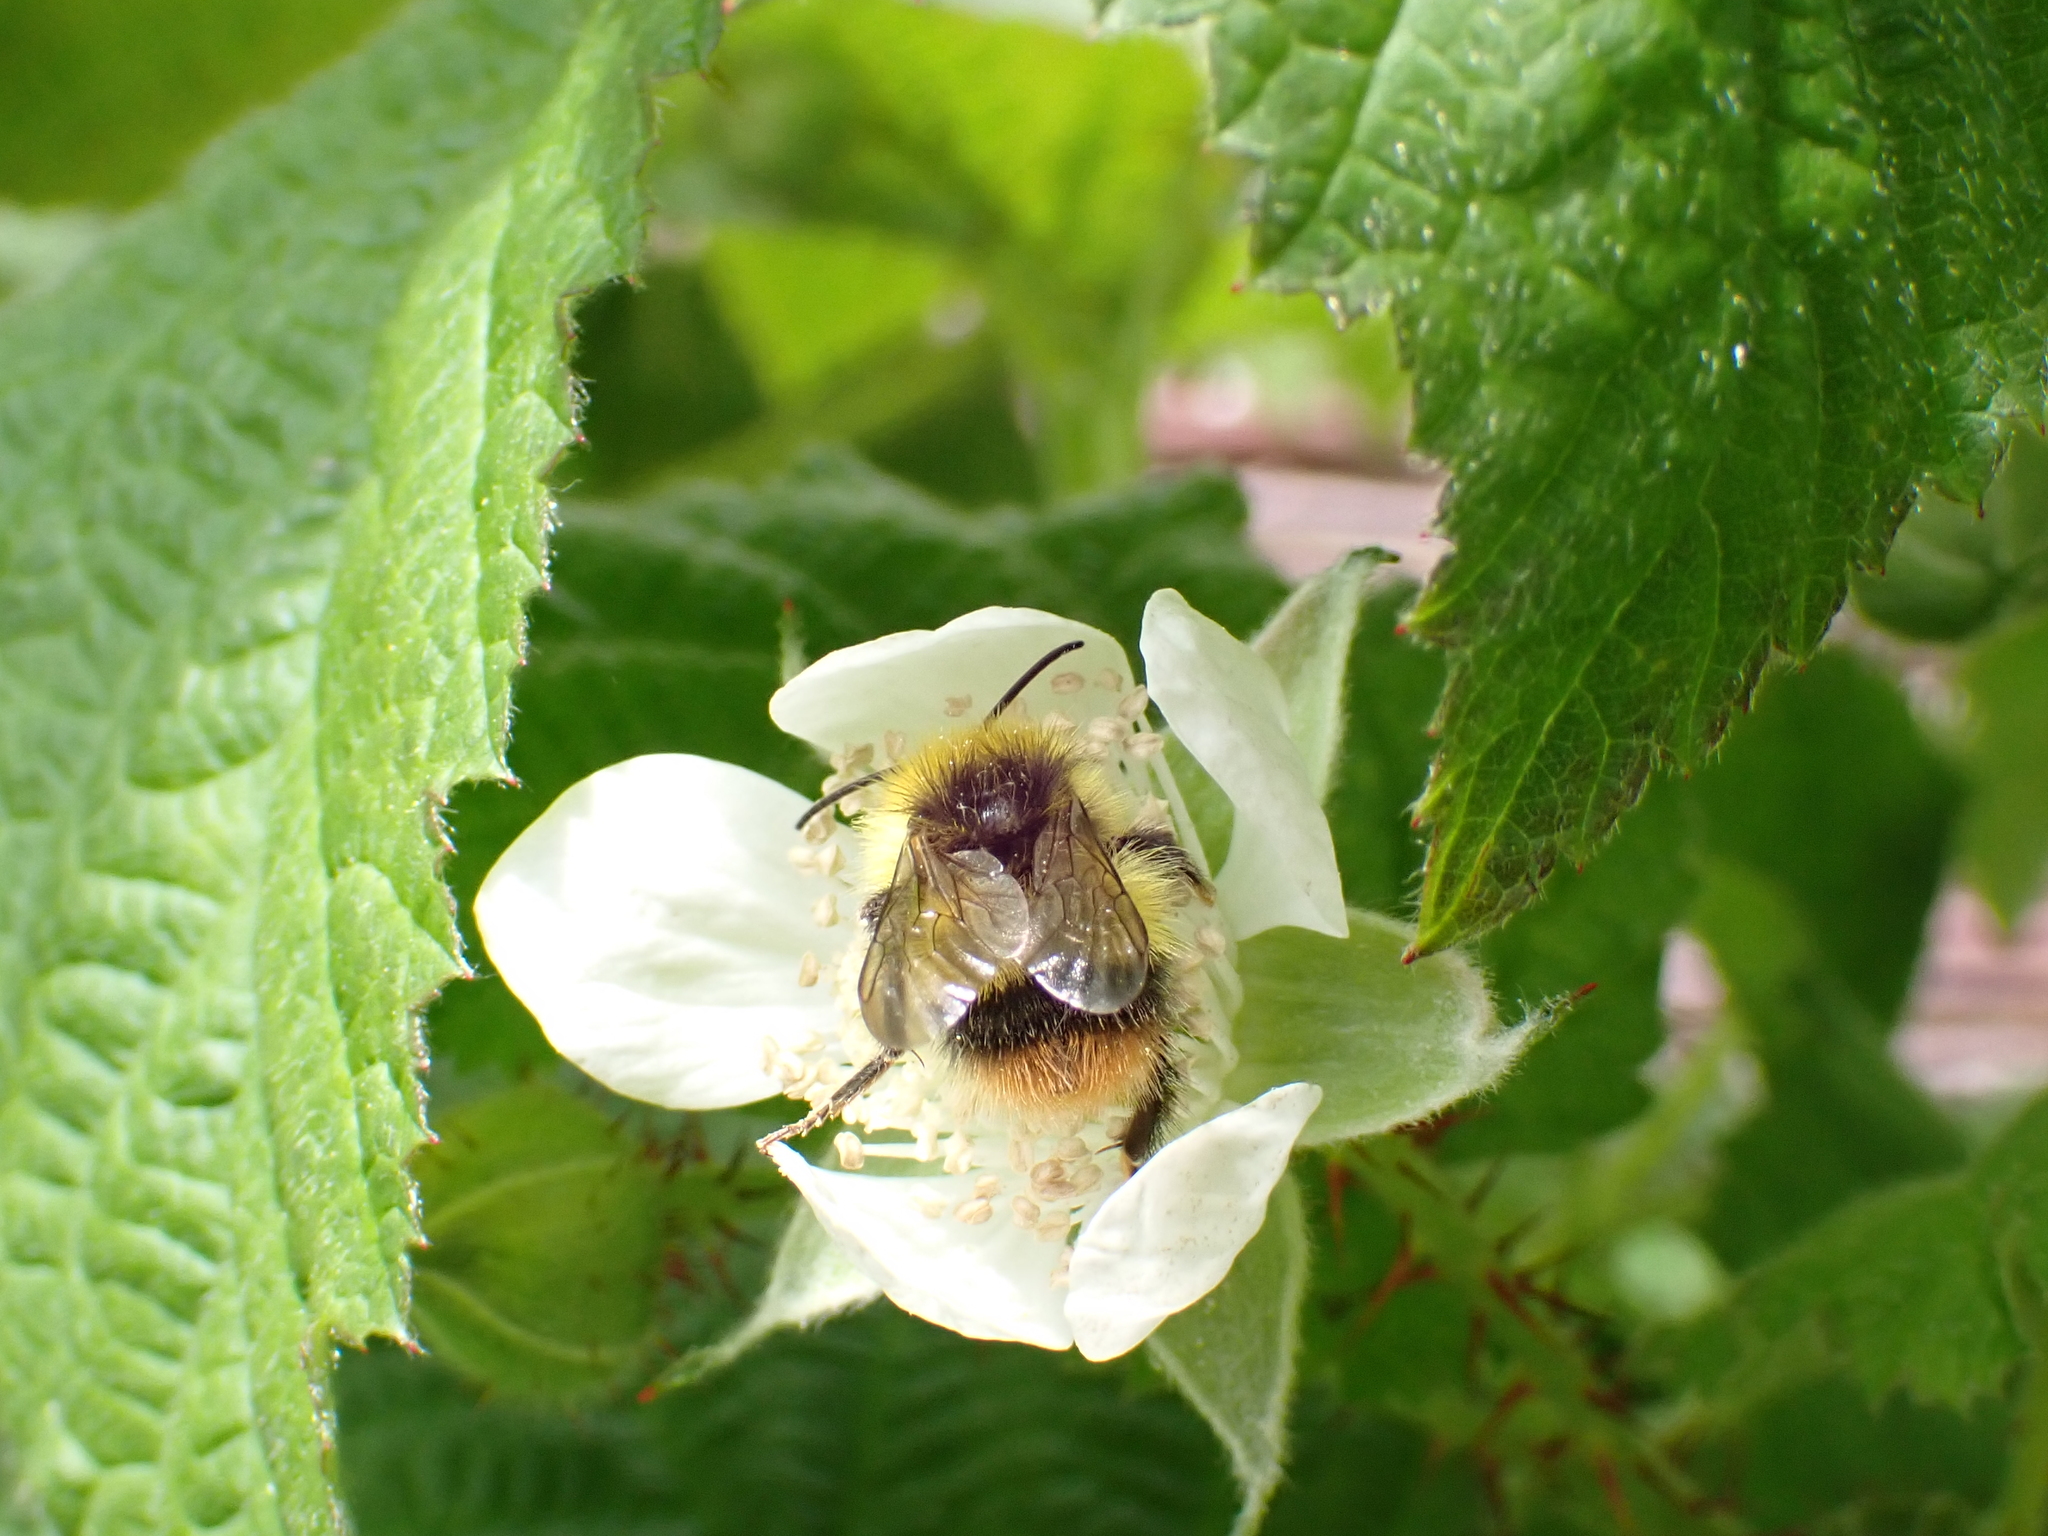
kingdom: Animalia
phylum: Arthropoda
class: Insecta
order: Hymenoptera
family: Apidae
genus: Bombus
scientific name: Bombus pratorum
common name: Early humble-bee
